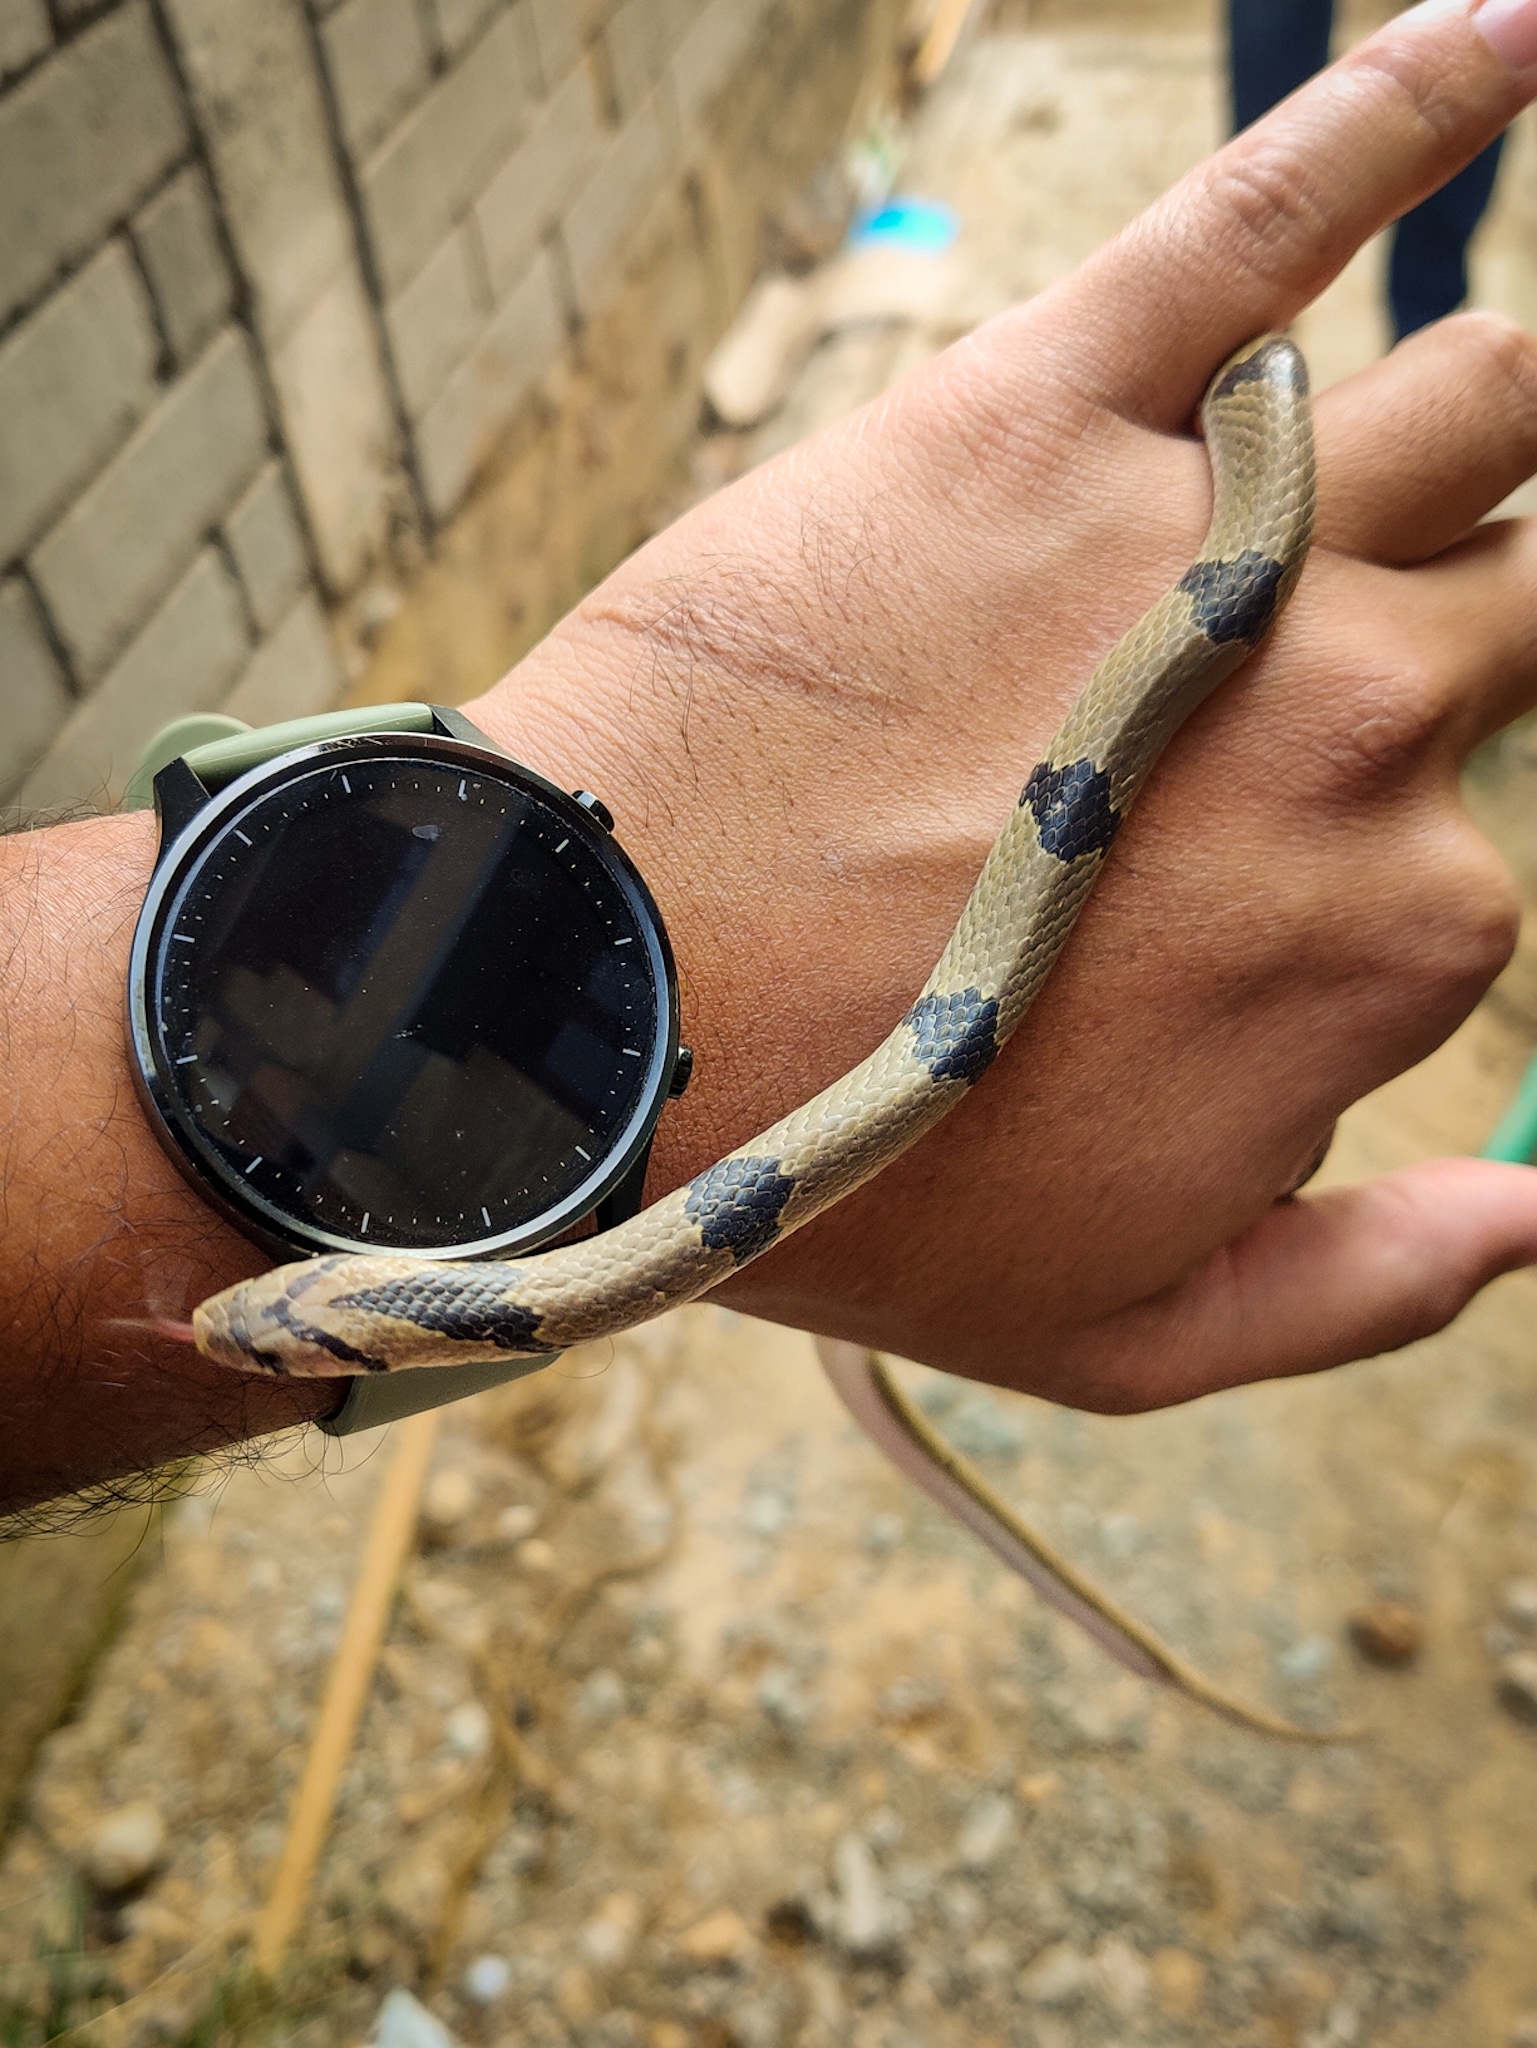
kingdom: Animalia
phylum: Chordata
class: Squamata
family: Colubridae
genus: Oligodon
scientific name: Oligodon arnensis
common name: Banded kukri
